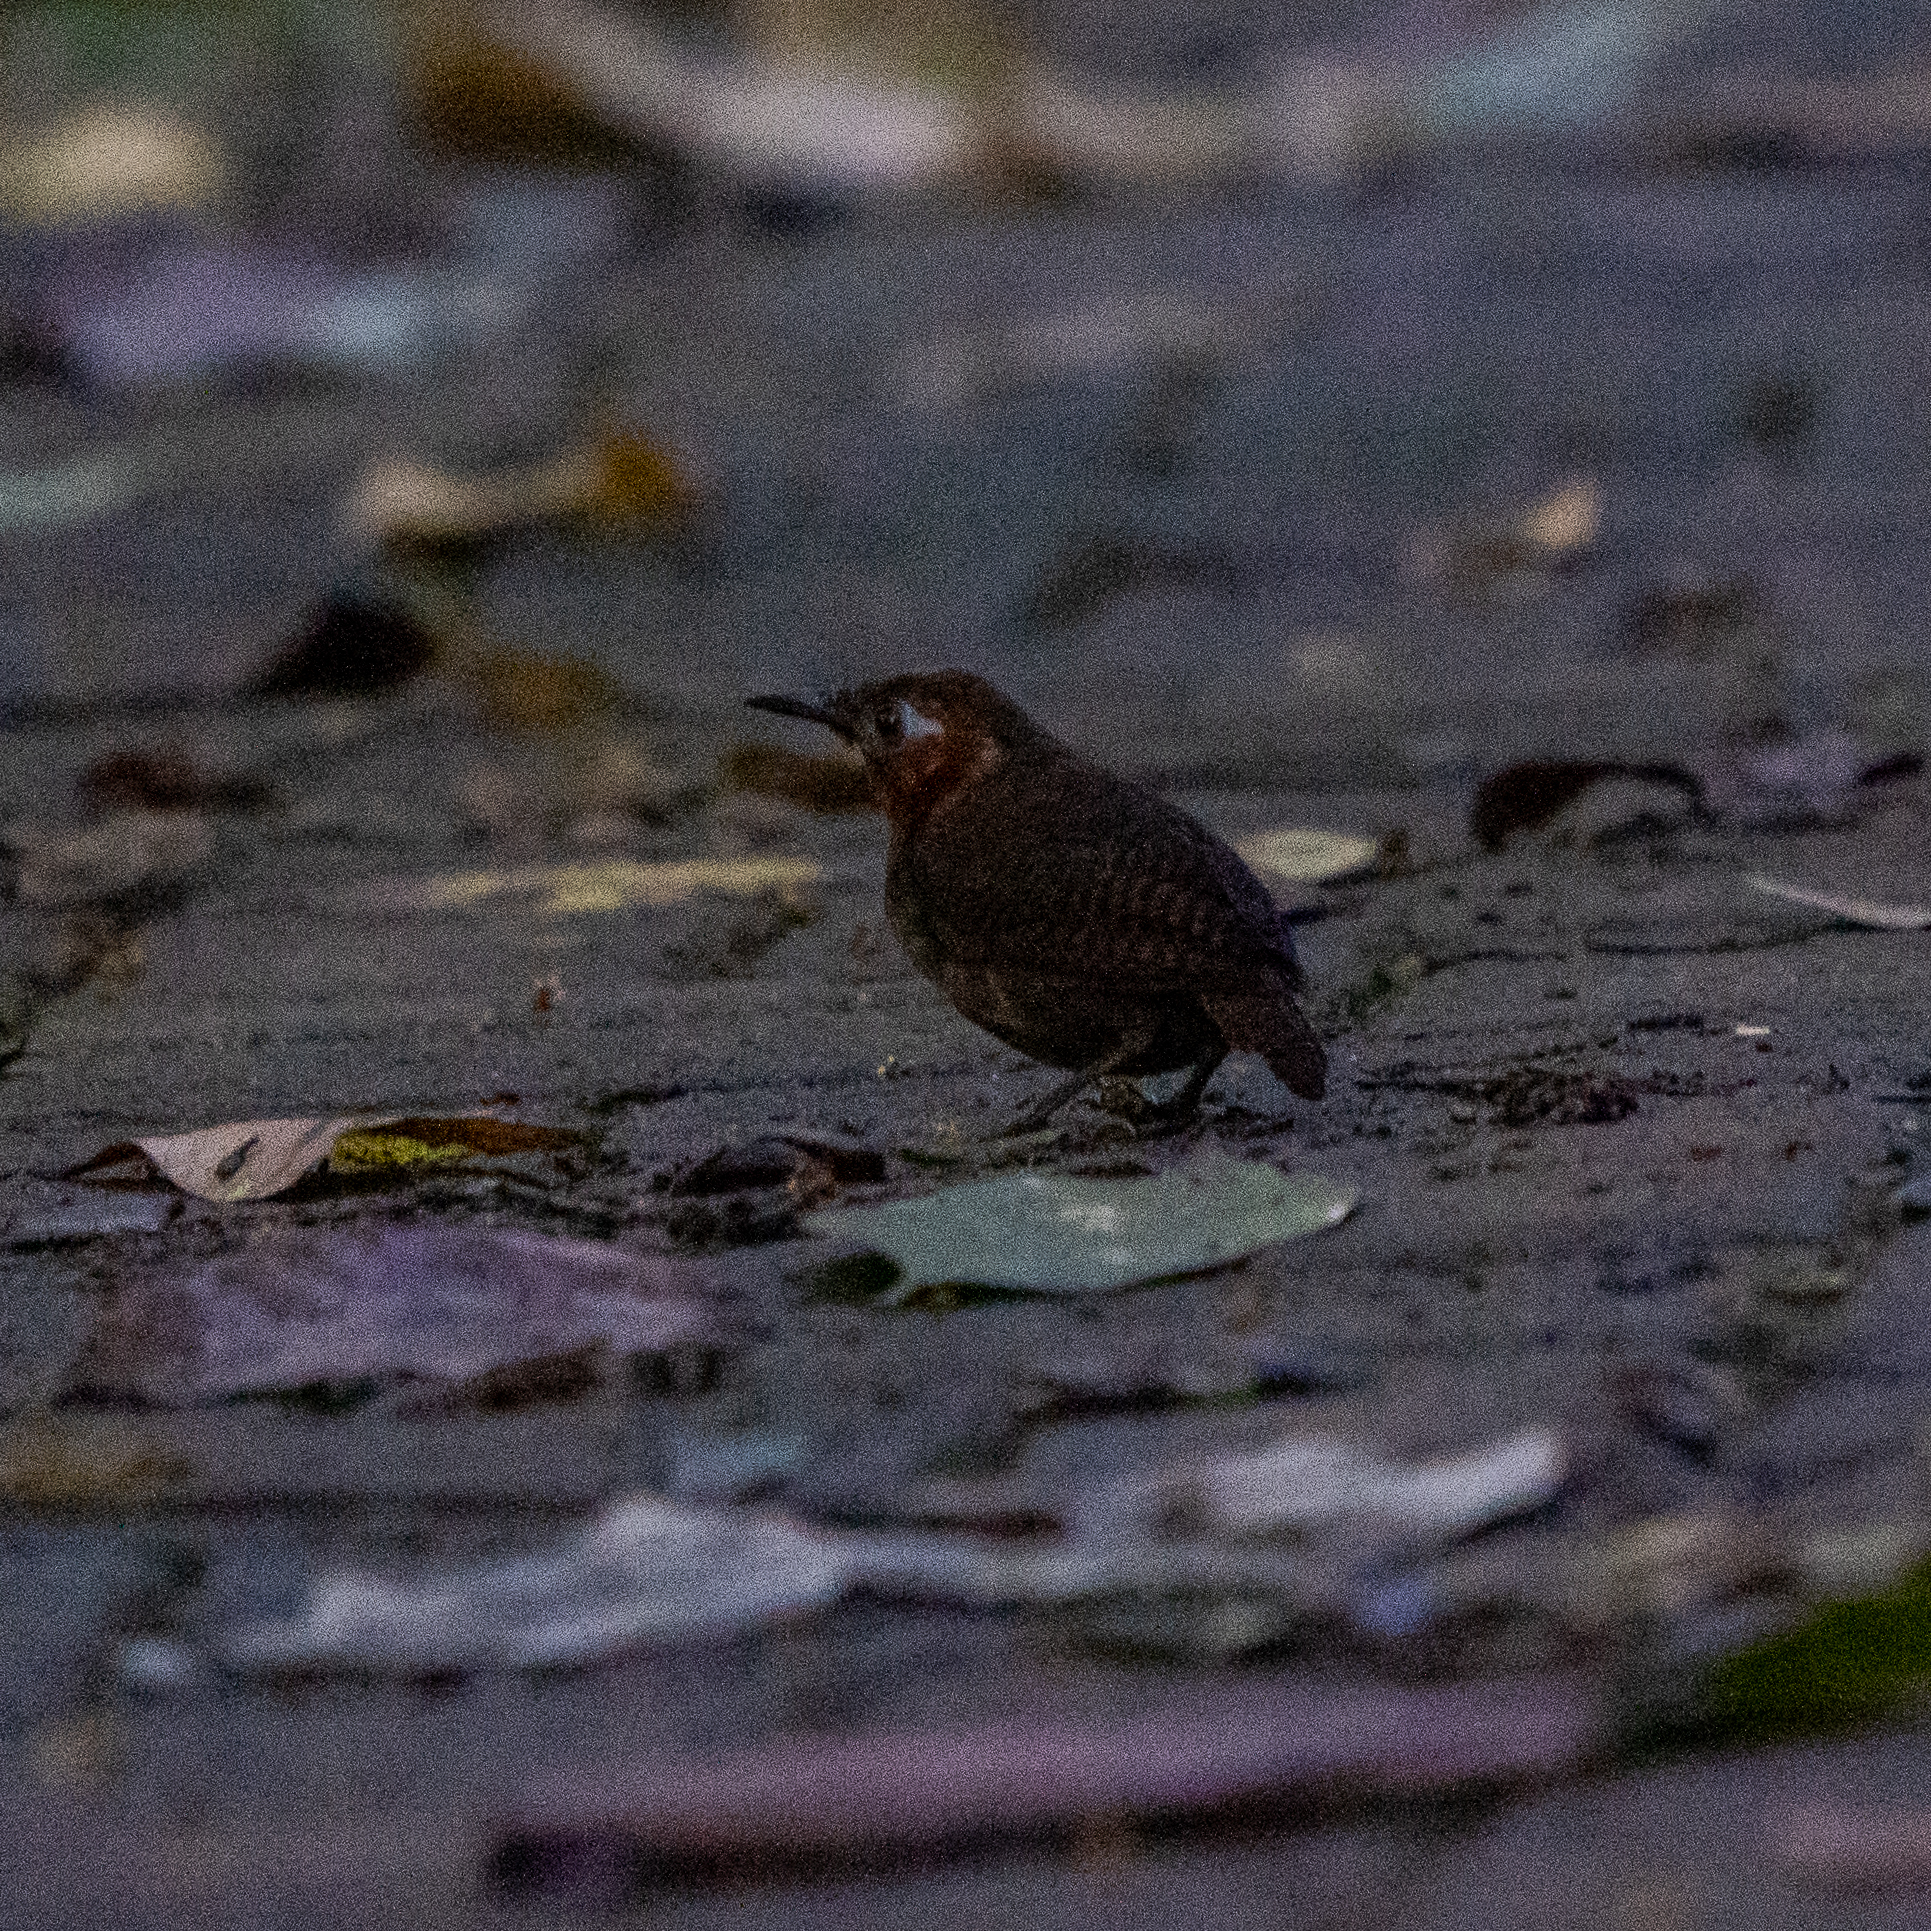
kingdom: Animalia
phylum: Chordata
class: Aves
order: Passeriformes
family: Troglodytidae
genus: Cyphorhinus
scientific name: Cyphorhinus phaeocephalus
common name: Song wren
